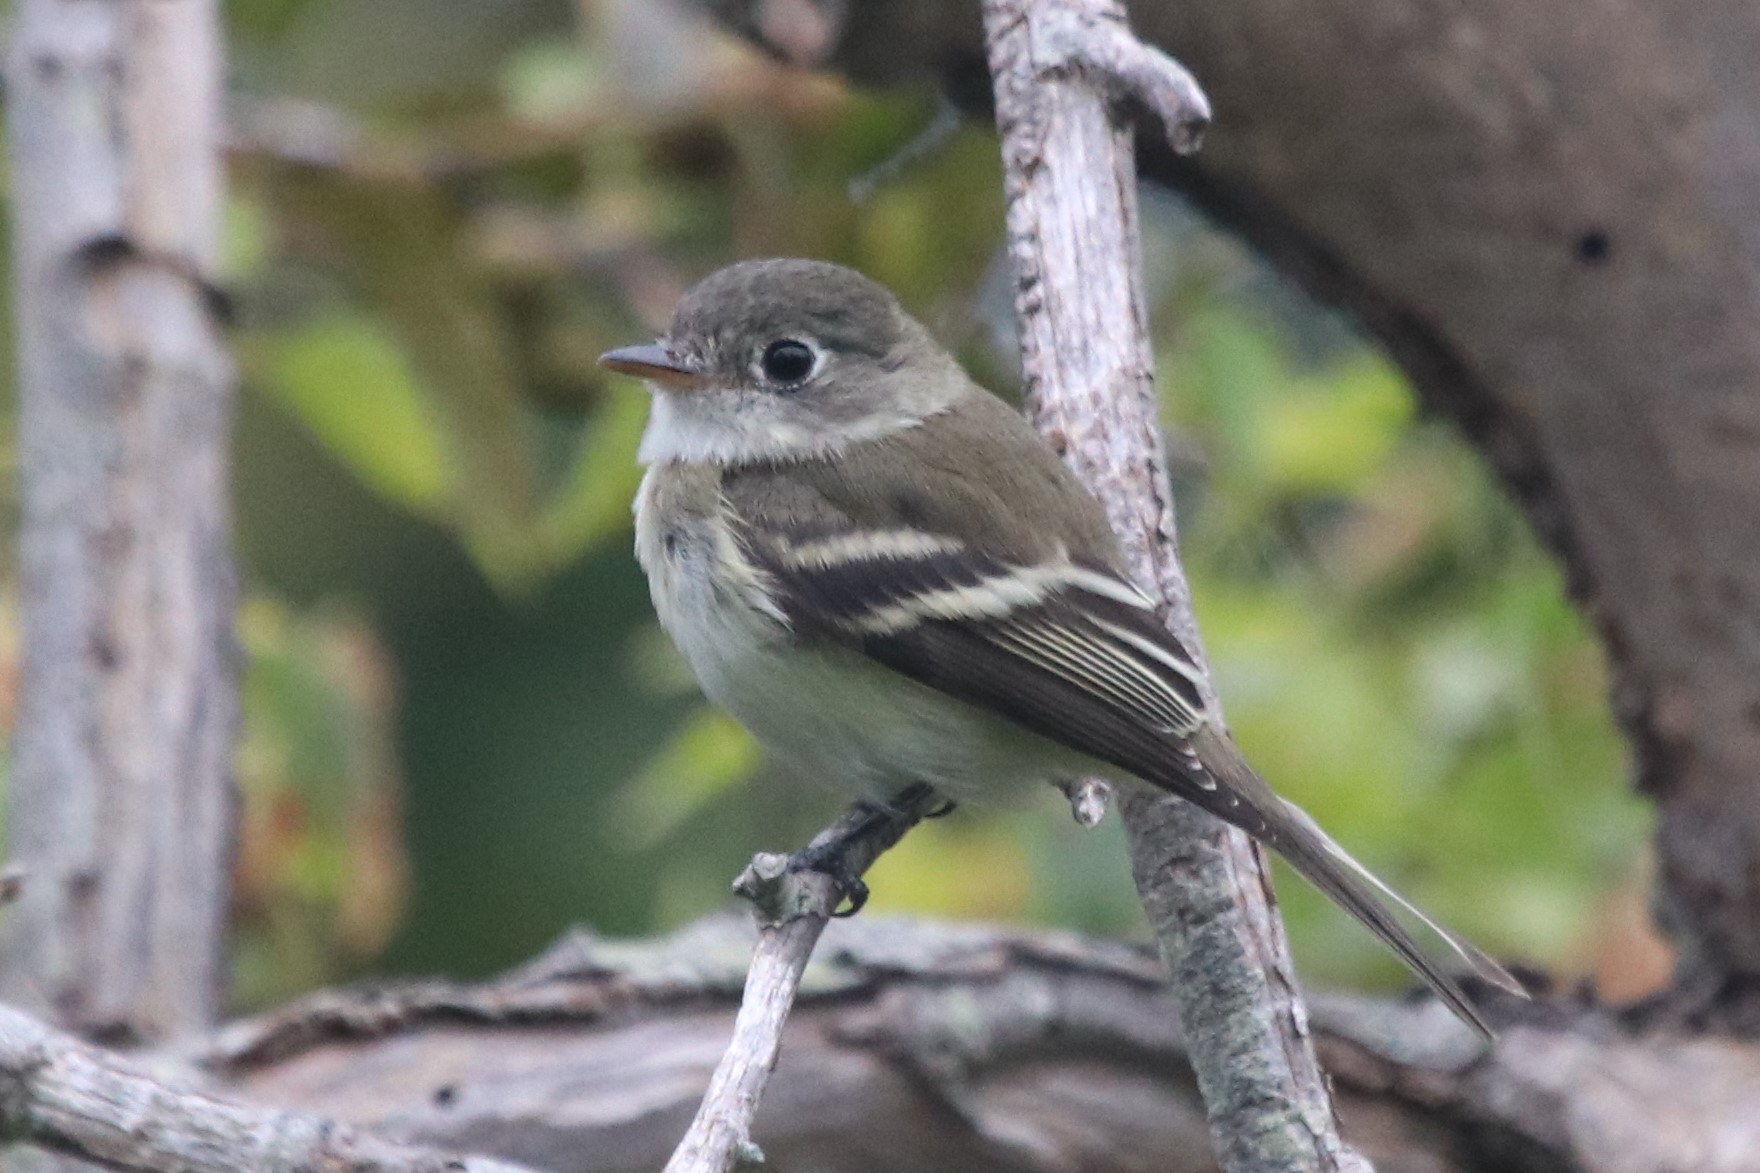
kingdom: Animalia
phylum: Chordata
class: Aves
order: Passeriformes
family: Tyrannidae
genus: Empidonax
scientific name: Empidonax minimus
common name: Least flycatcher
